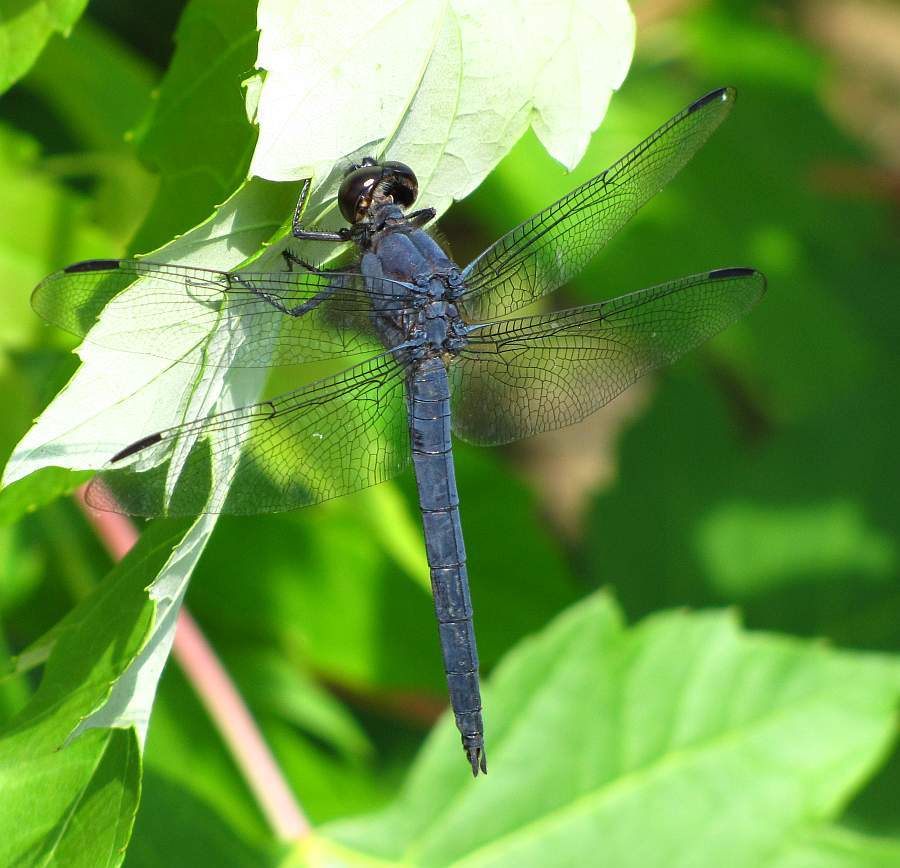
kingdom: Animalia
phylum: Arthropoda
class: Insecta
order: Odonata
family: Libellulidae
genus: Libellula
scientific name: Libellula incesta
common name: Slaty skimmer
